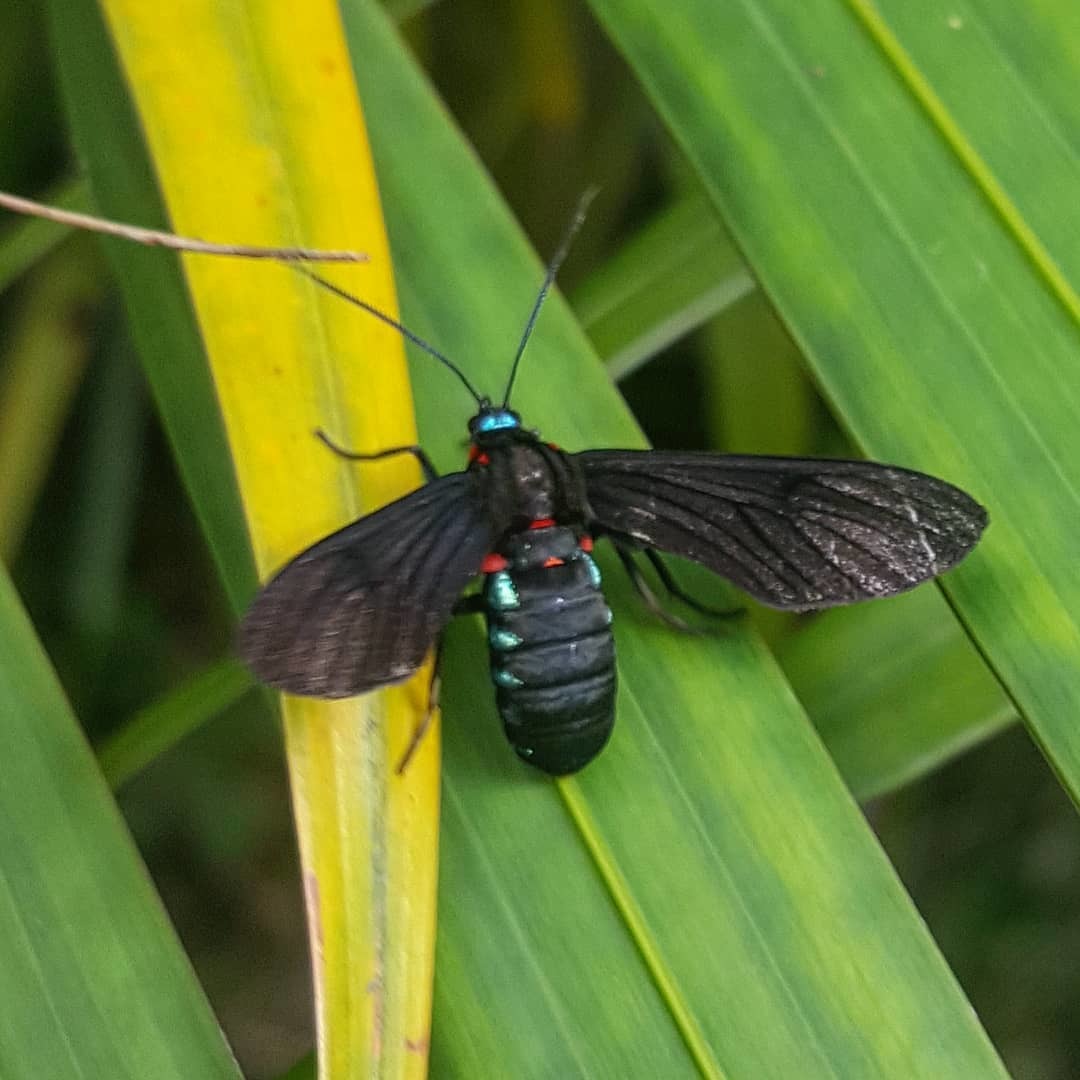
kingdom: Animalia
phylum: Arthropoda
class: Insecta
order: Lepidoptera
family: Erebidae
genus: Saurita
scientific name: Saurita cassandra
